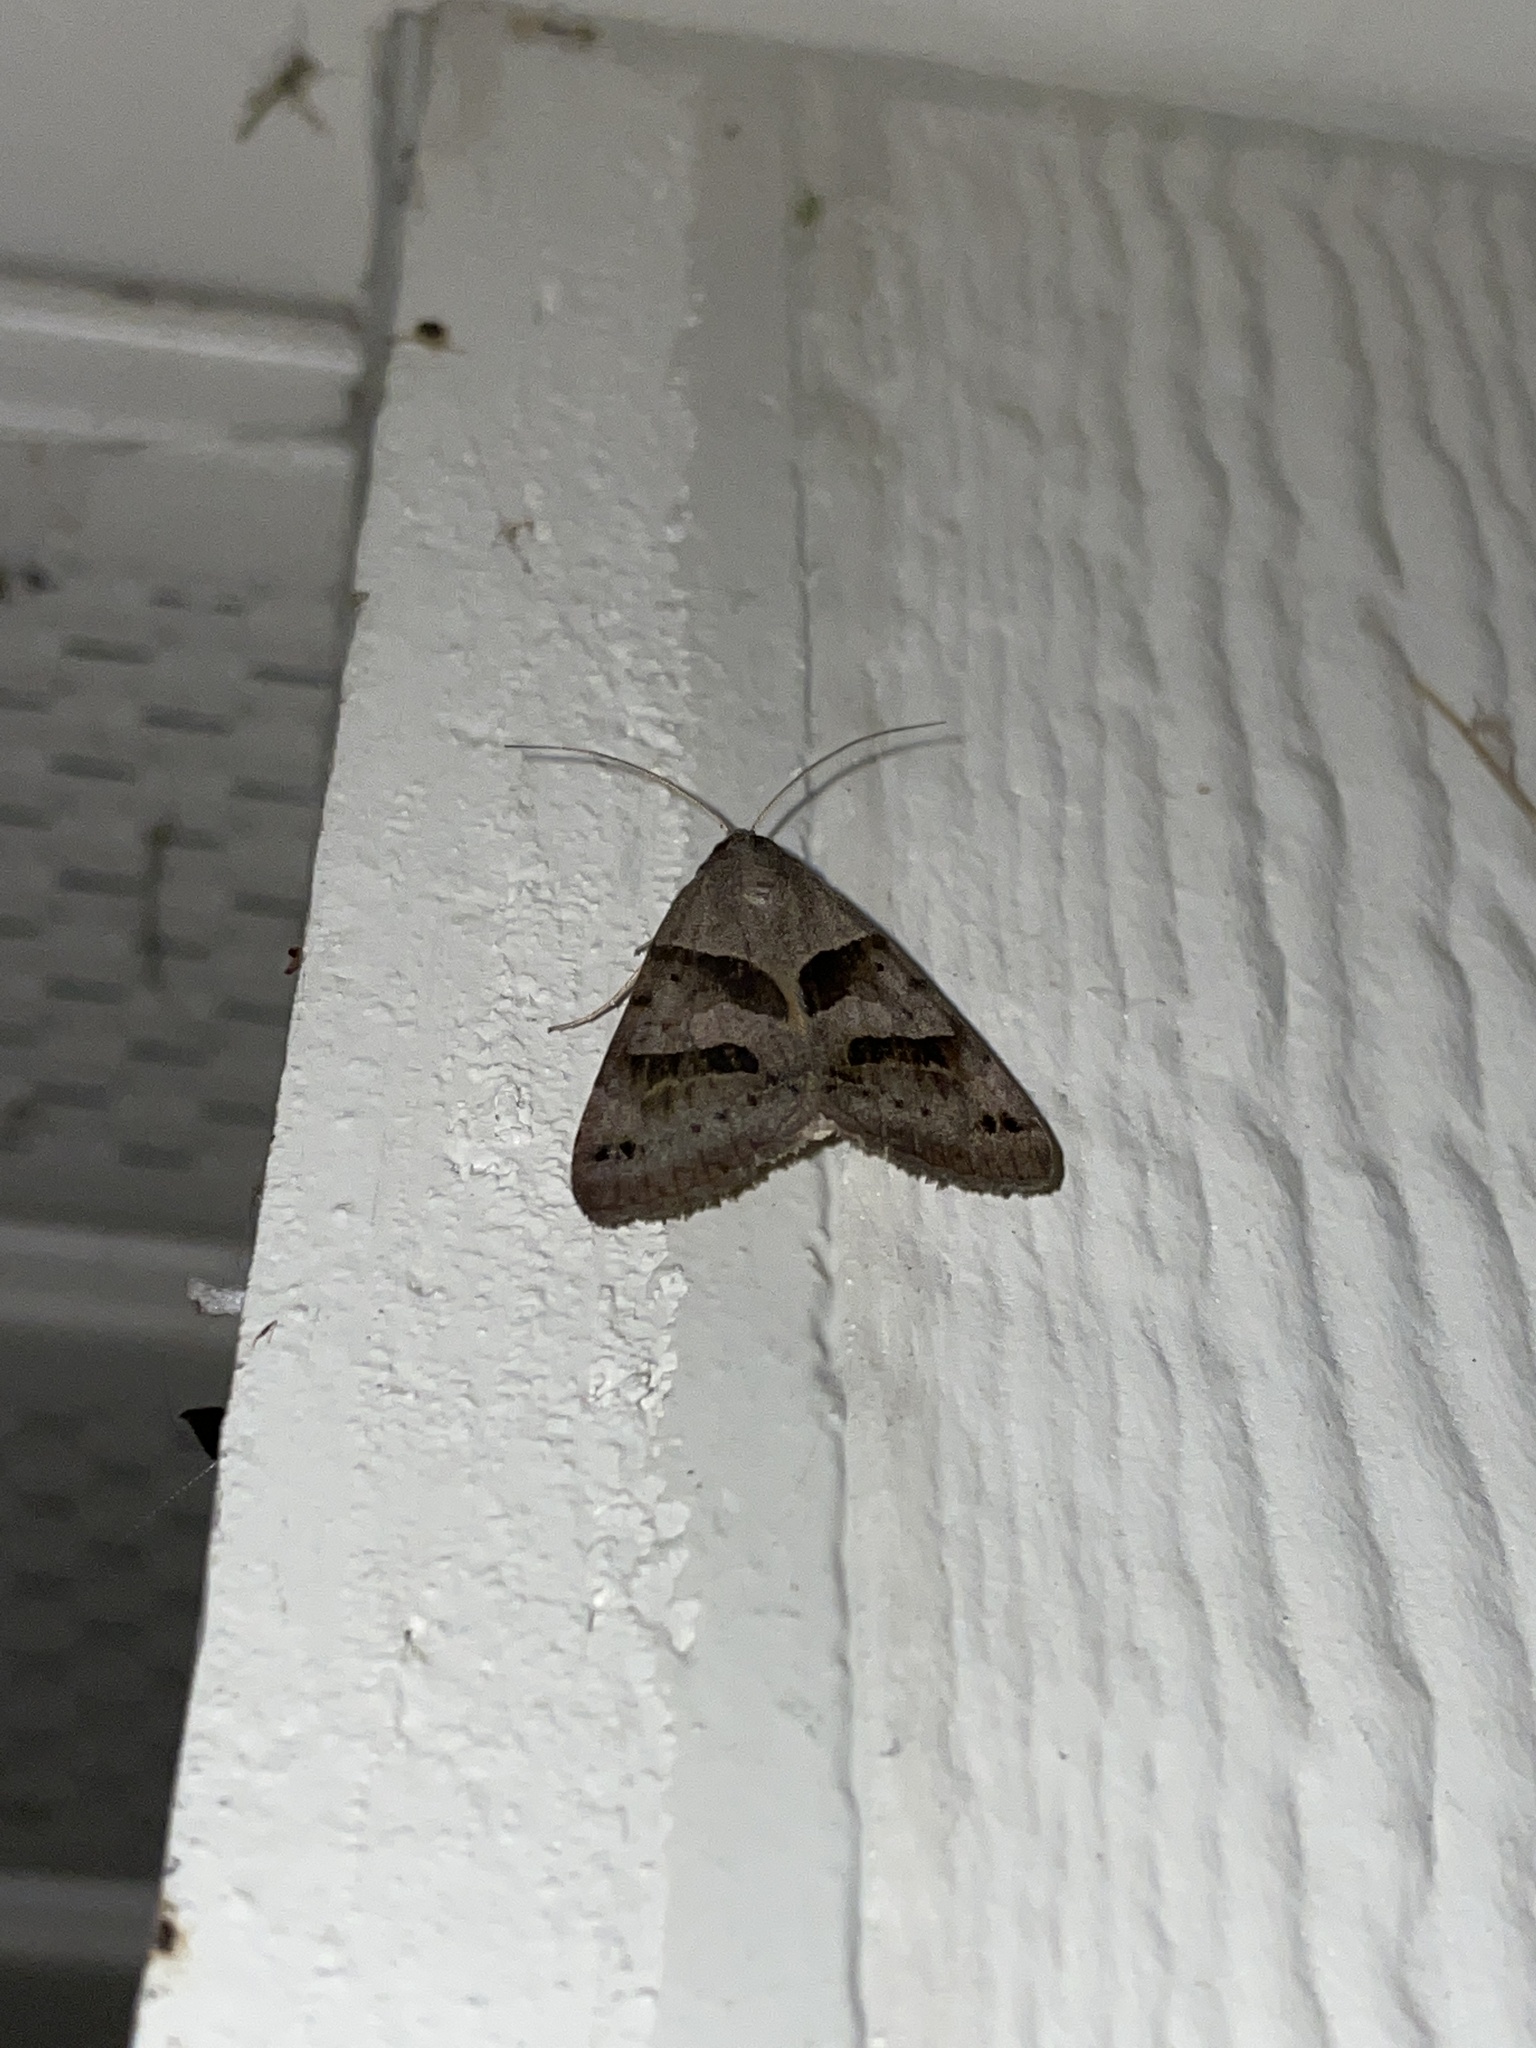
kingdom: Animalia
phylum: Arthropoda
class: Insecta
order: Lepidoptera
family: Erebidae
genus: Caenurgina
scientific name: Caenurgina erechtea
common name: Forage looper moth
